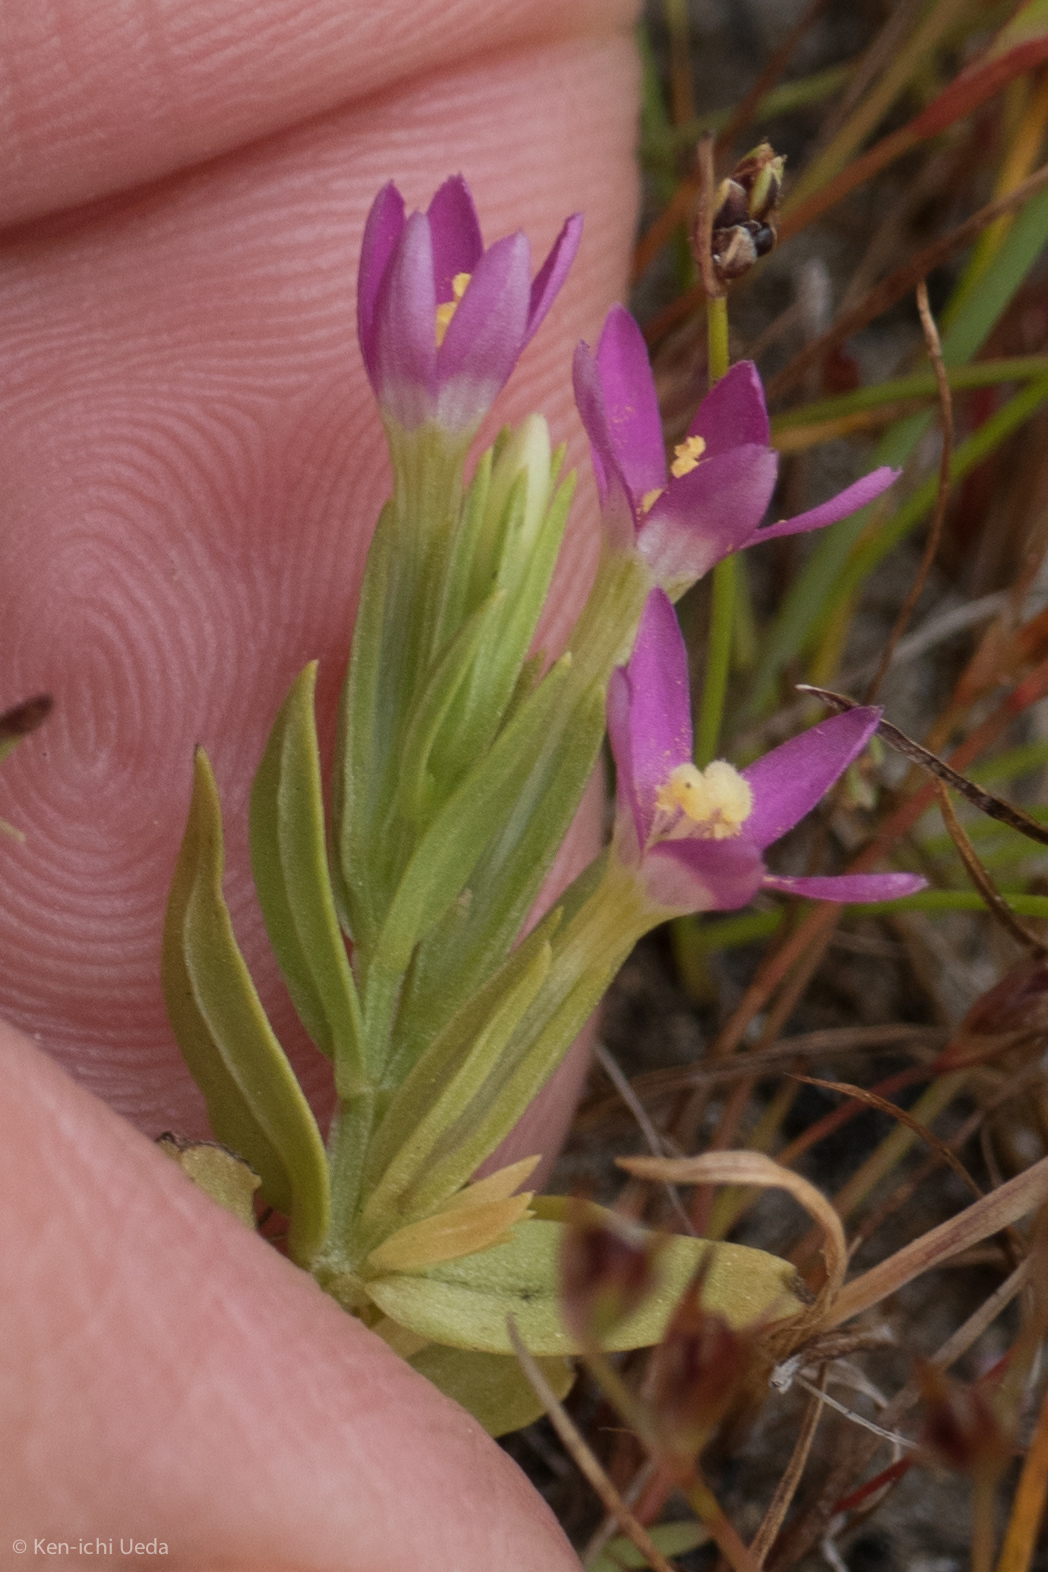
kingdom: Plantae
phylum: Tracheophyta
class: Magnoliopsida
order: Gentianales
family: Gentianaceae
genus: Zeltnera
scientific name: Zeltnera davyi
